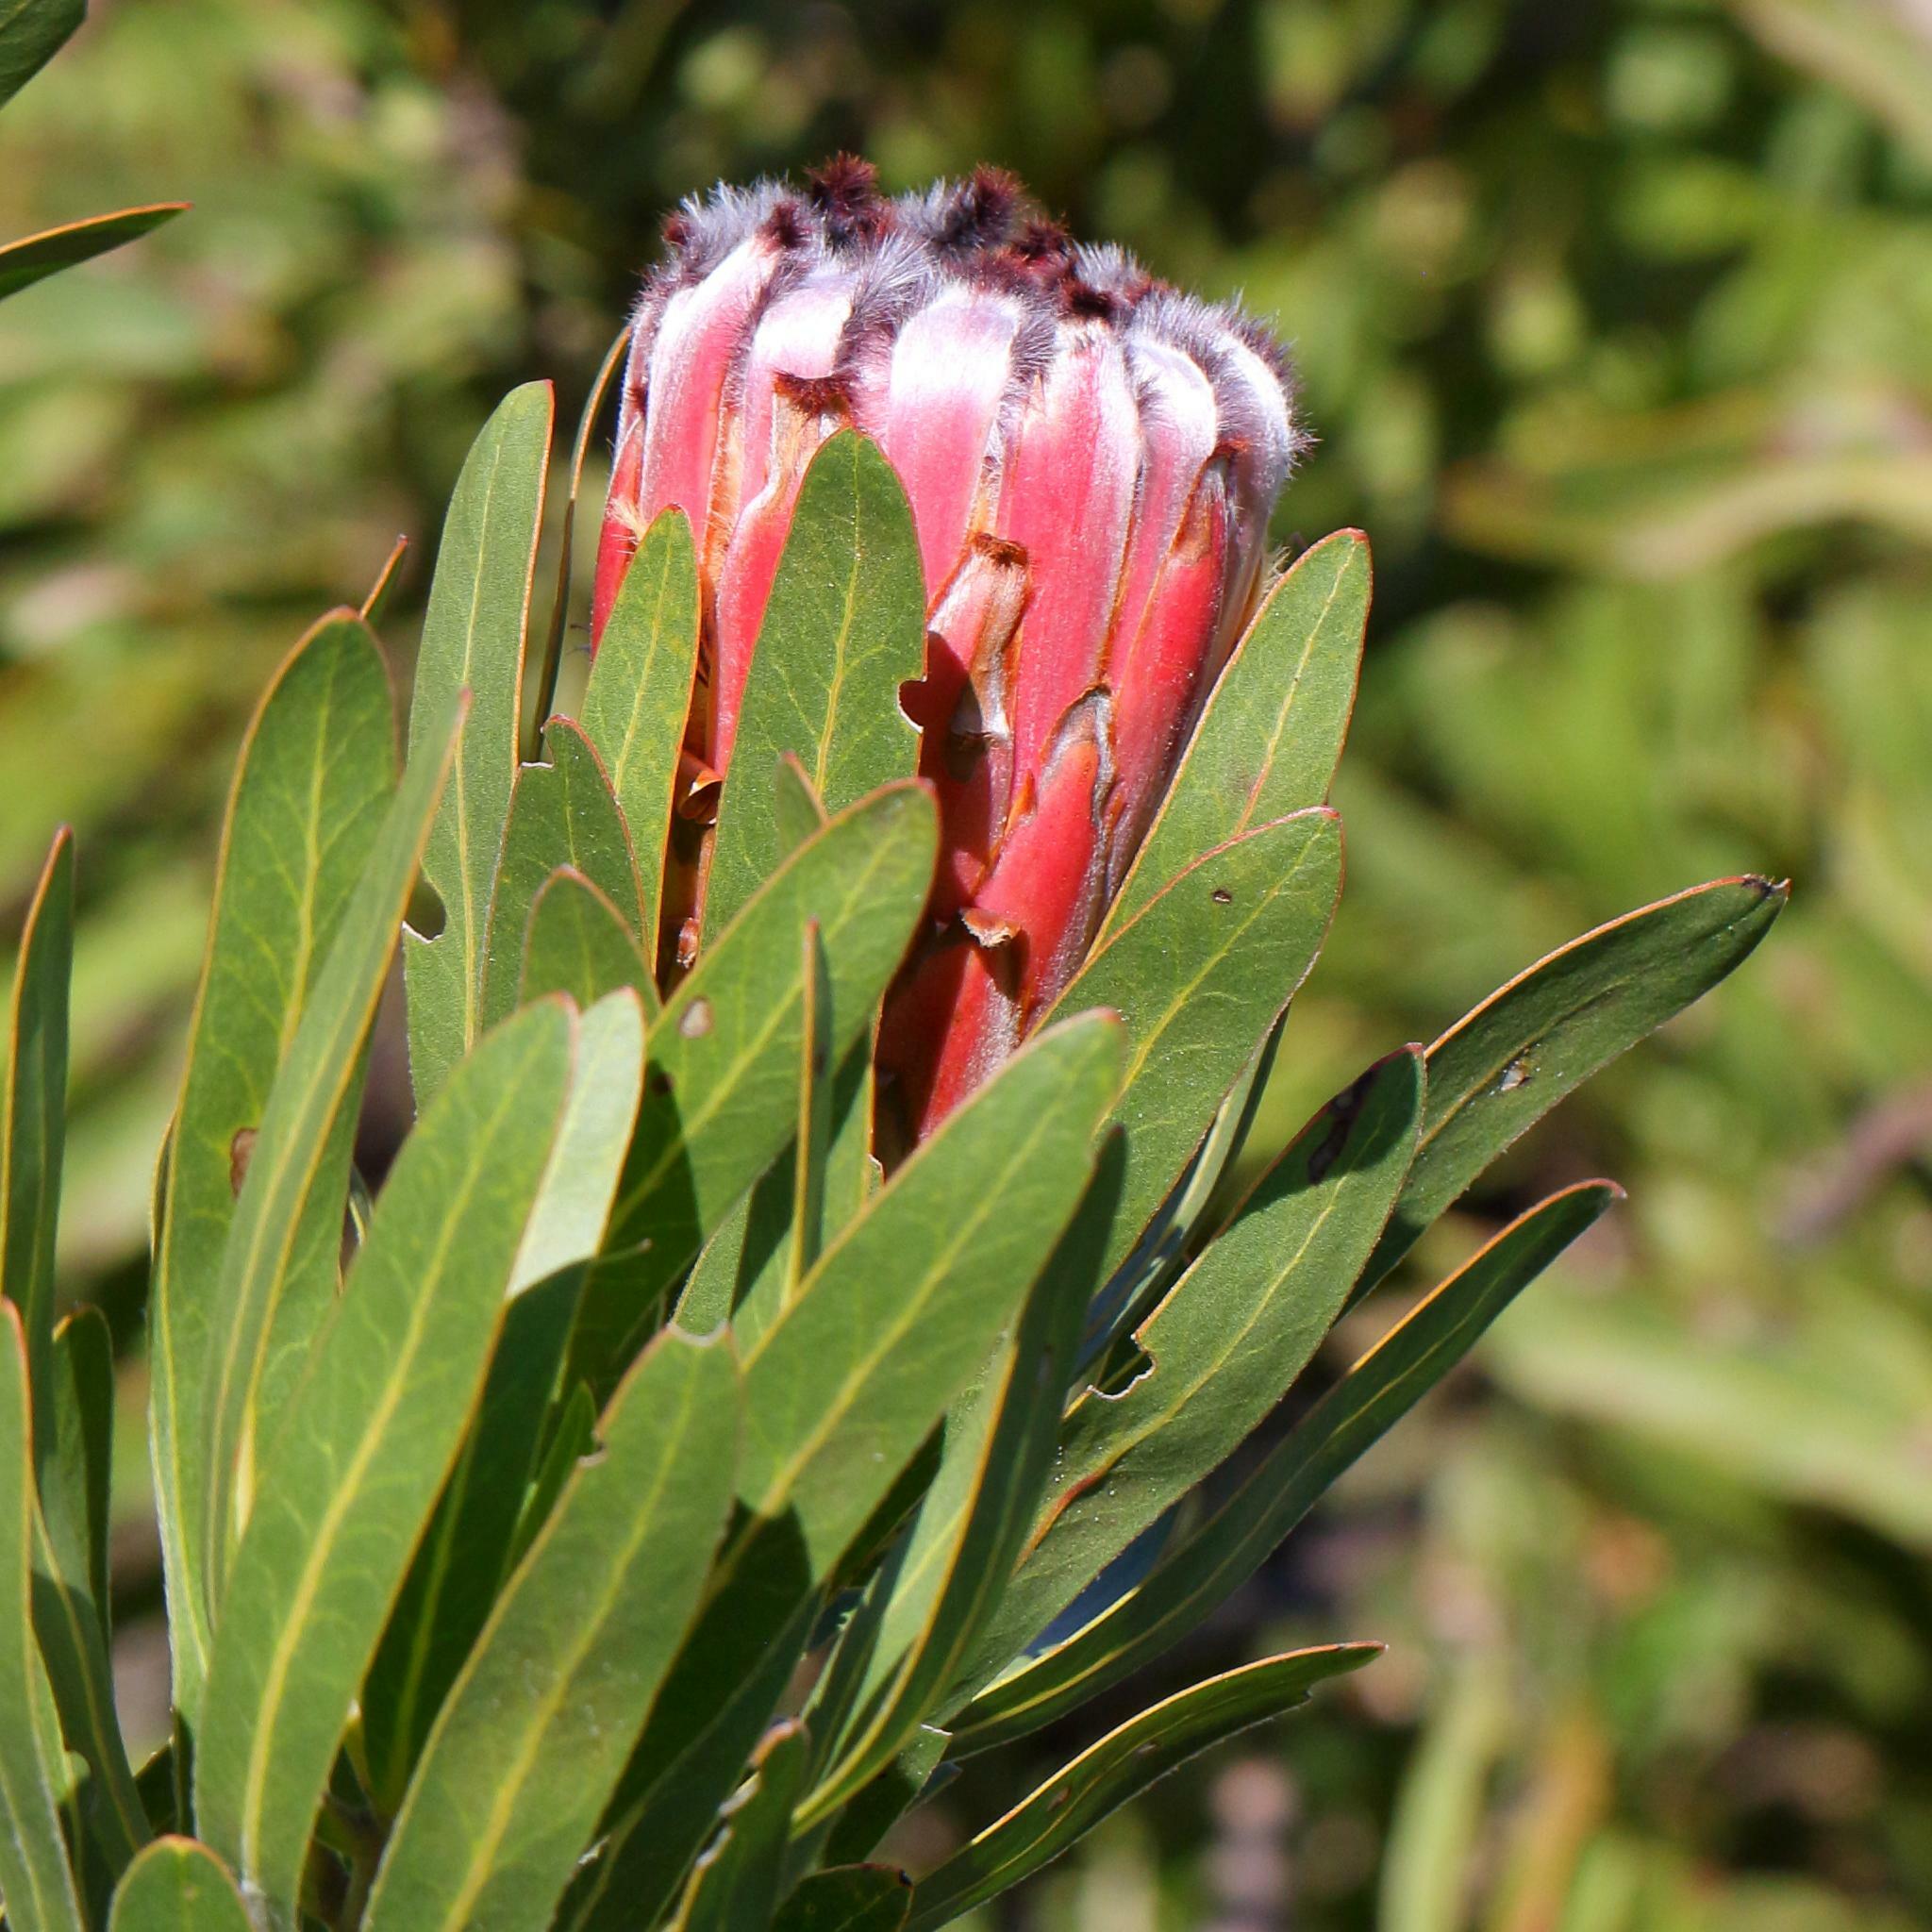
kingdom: Plantae
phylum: Tracheophyta
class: Magnoliopsida
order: Proteales
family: Proteaceae
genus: Protea
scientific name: Protea neriifolia
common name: Blue sugarbush
